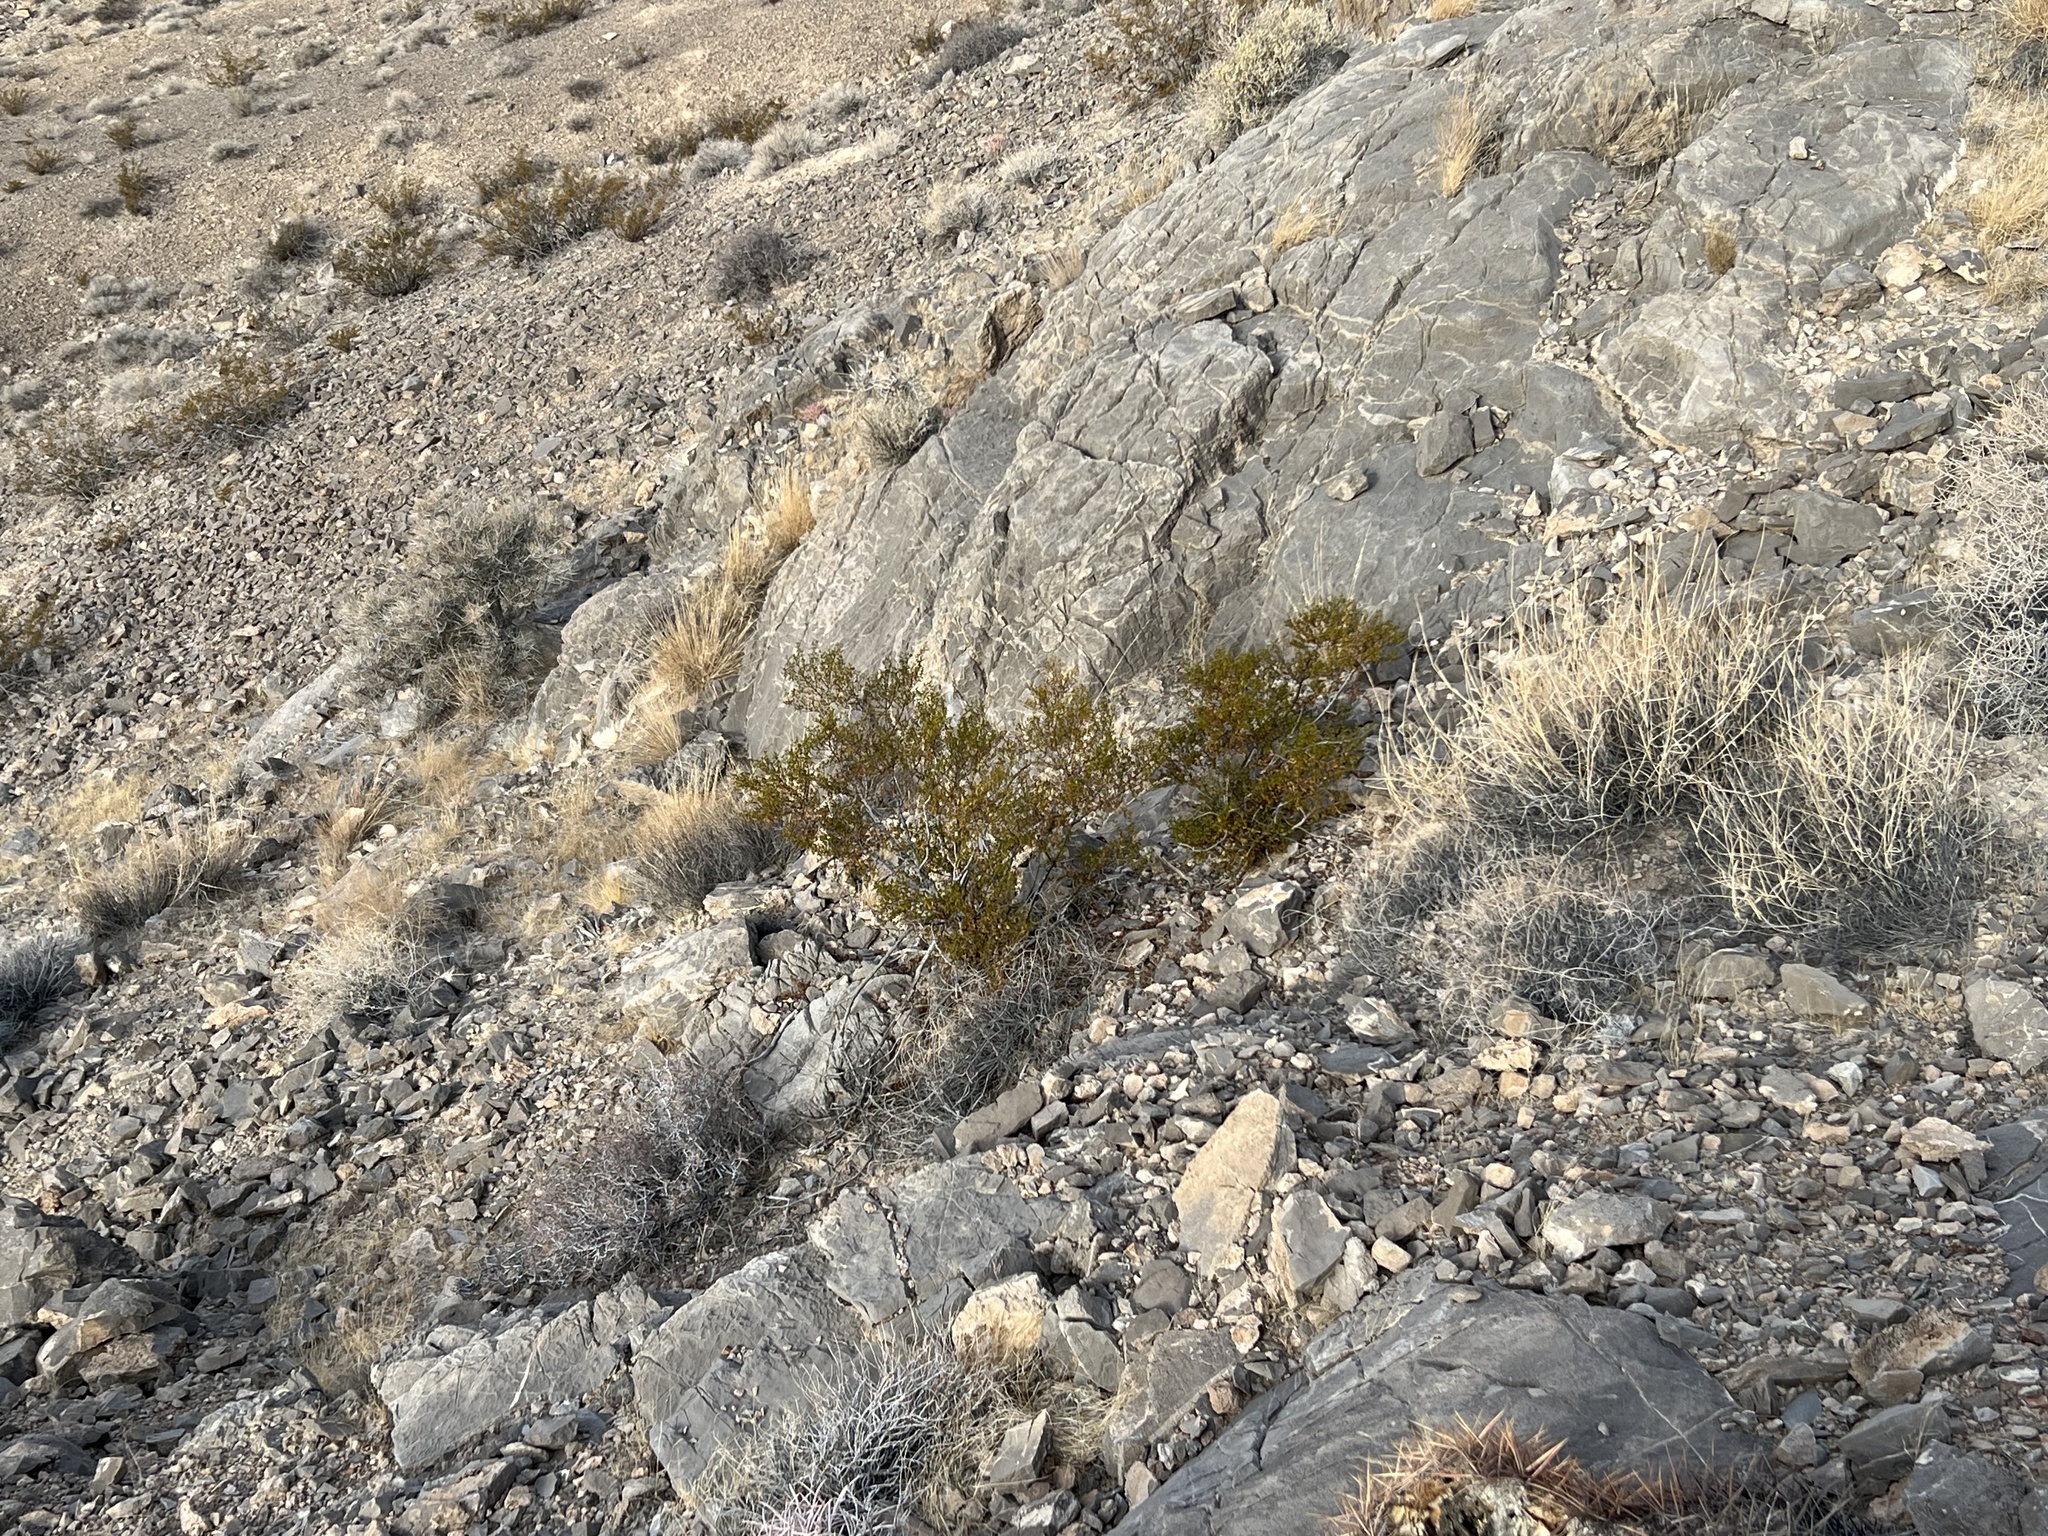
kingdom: Plantae
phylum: Tracheophyta
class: Magnoliopsida
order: Zygophyllales
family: Zygophyllaceae
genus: Larrea
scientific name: Larrea tridentata
